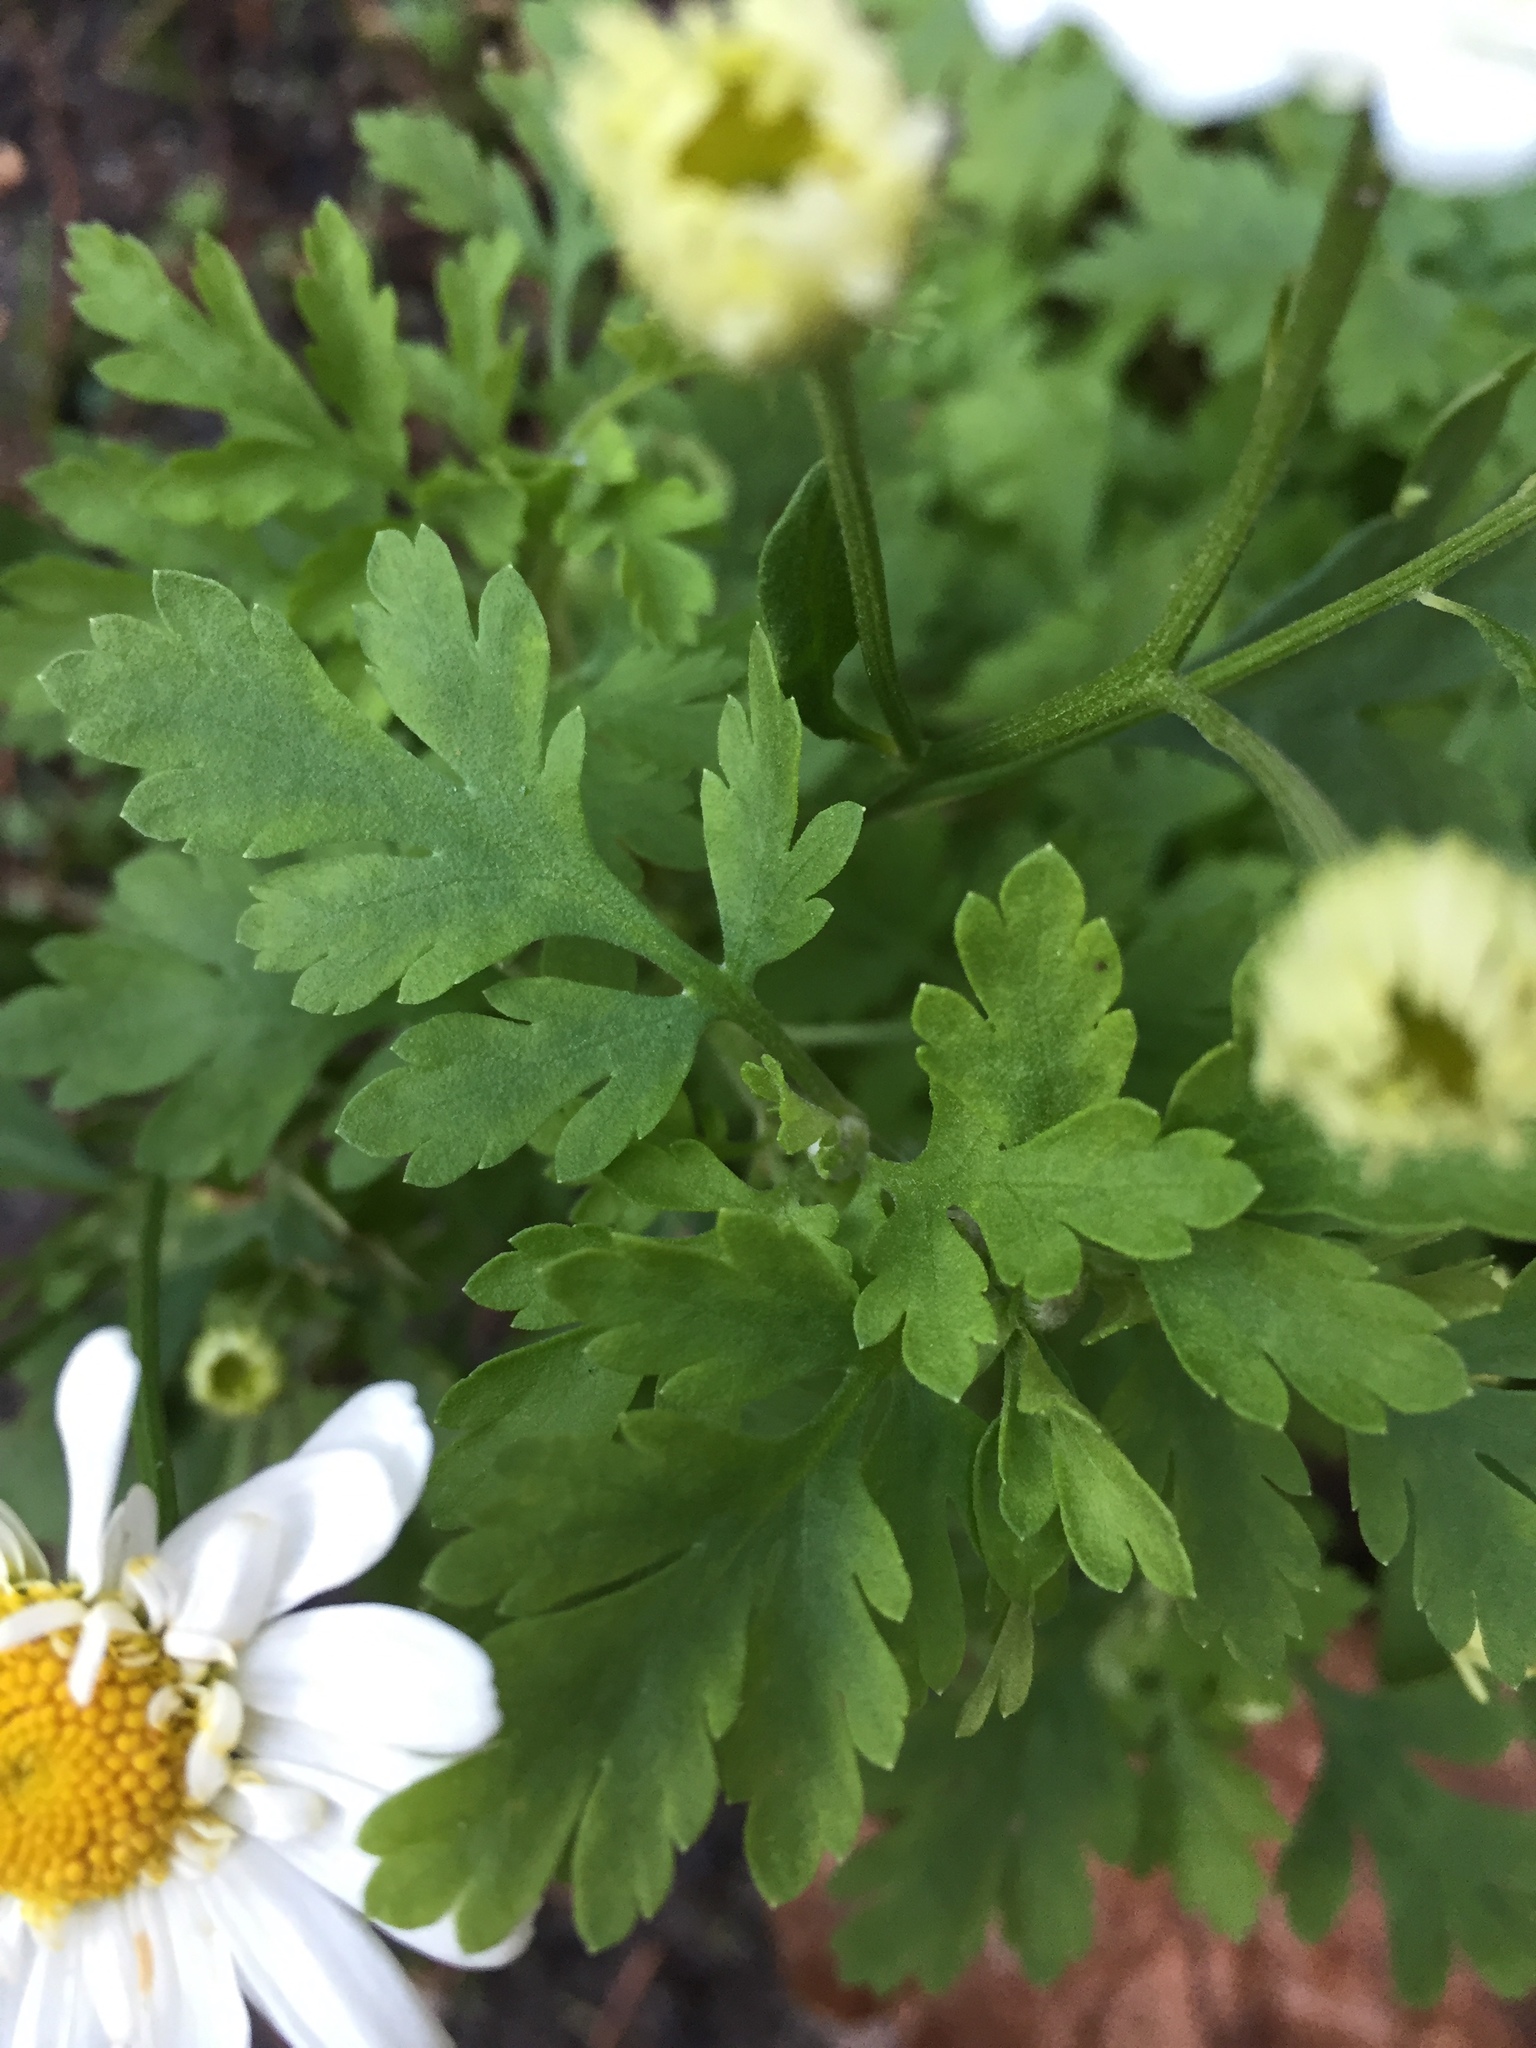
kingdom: Plantae
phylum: Tracheophyta
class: Magnoliopsida
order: Asterales
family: Asteraceae
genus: Tanacetum
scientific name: Tanacetum parthenium
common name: Feverfew
